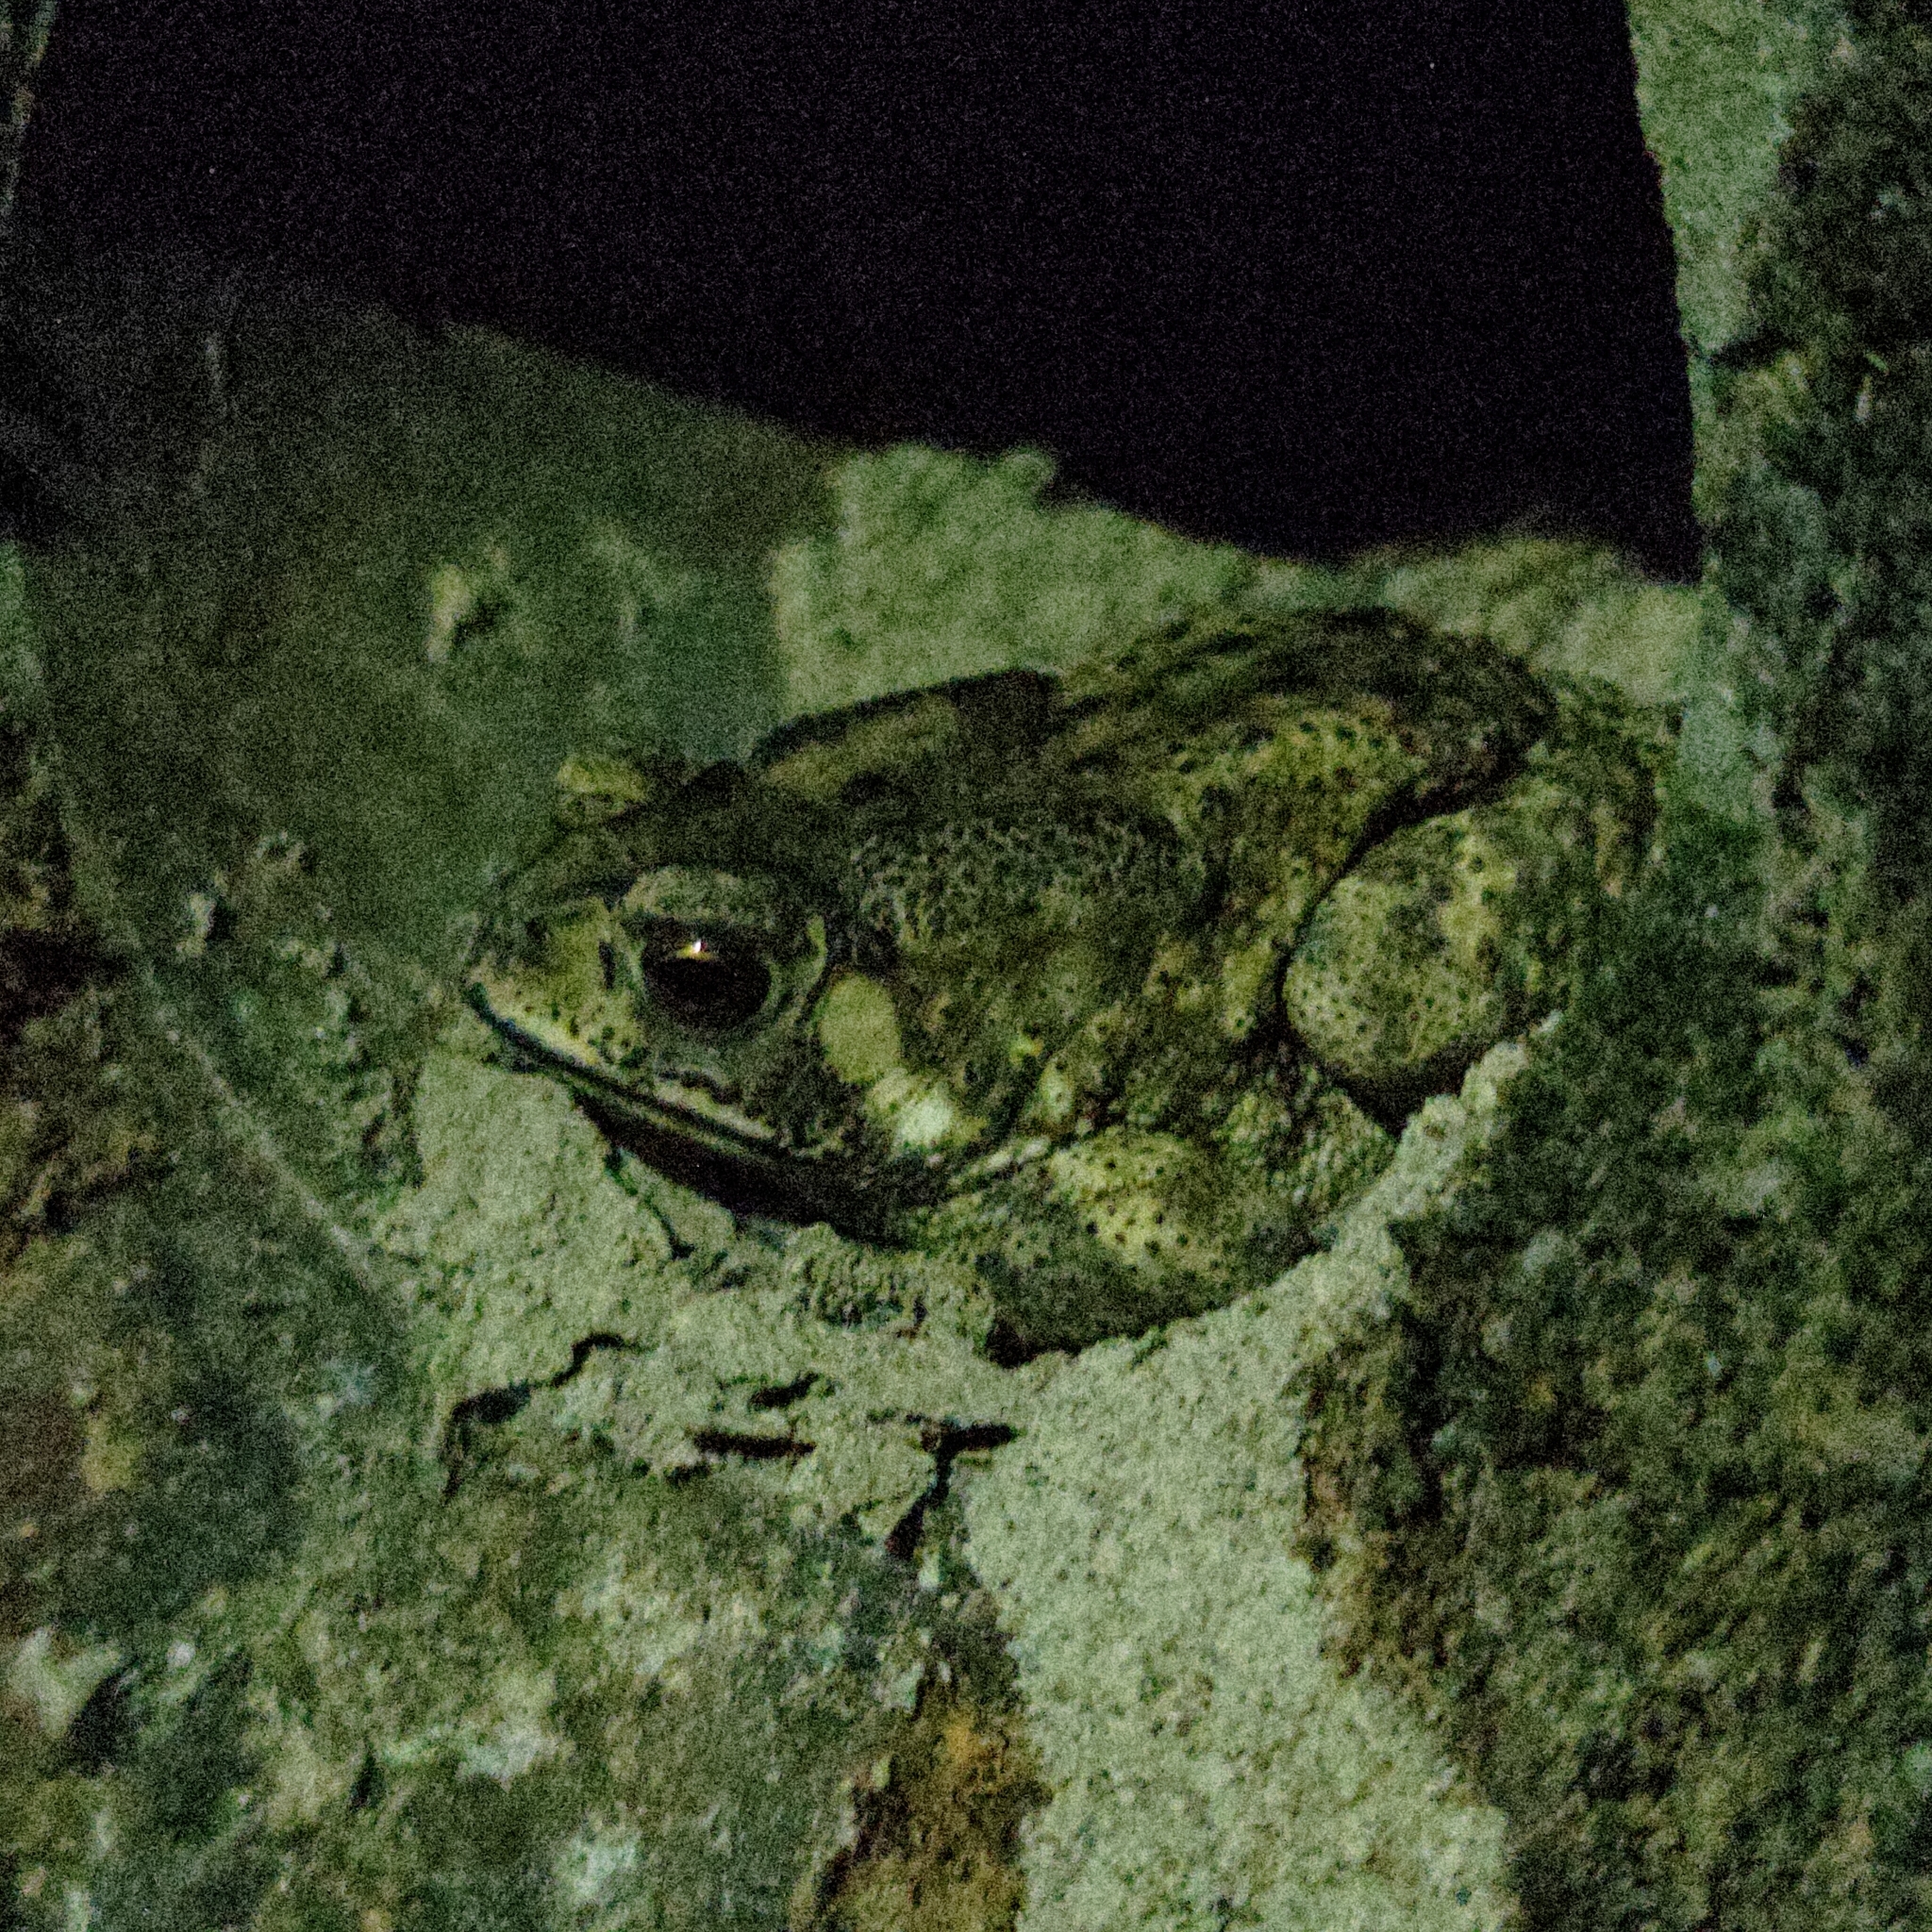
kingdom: Animalia
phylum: Chordata
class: Amphibia
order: Anura
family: Bufonidae
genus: Duttaphrynus
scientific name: Duttaphrynus melanostictus
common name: Common sunda toad
